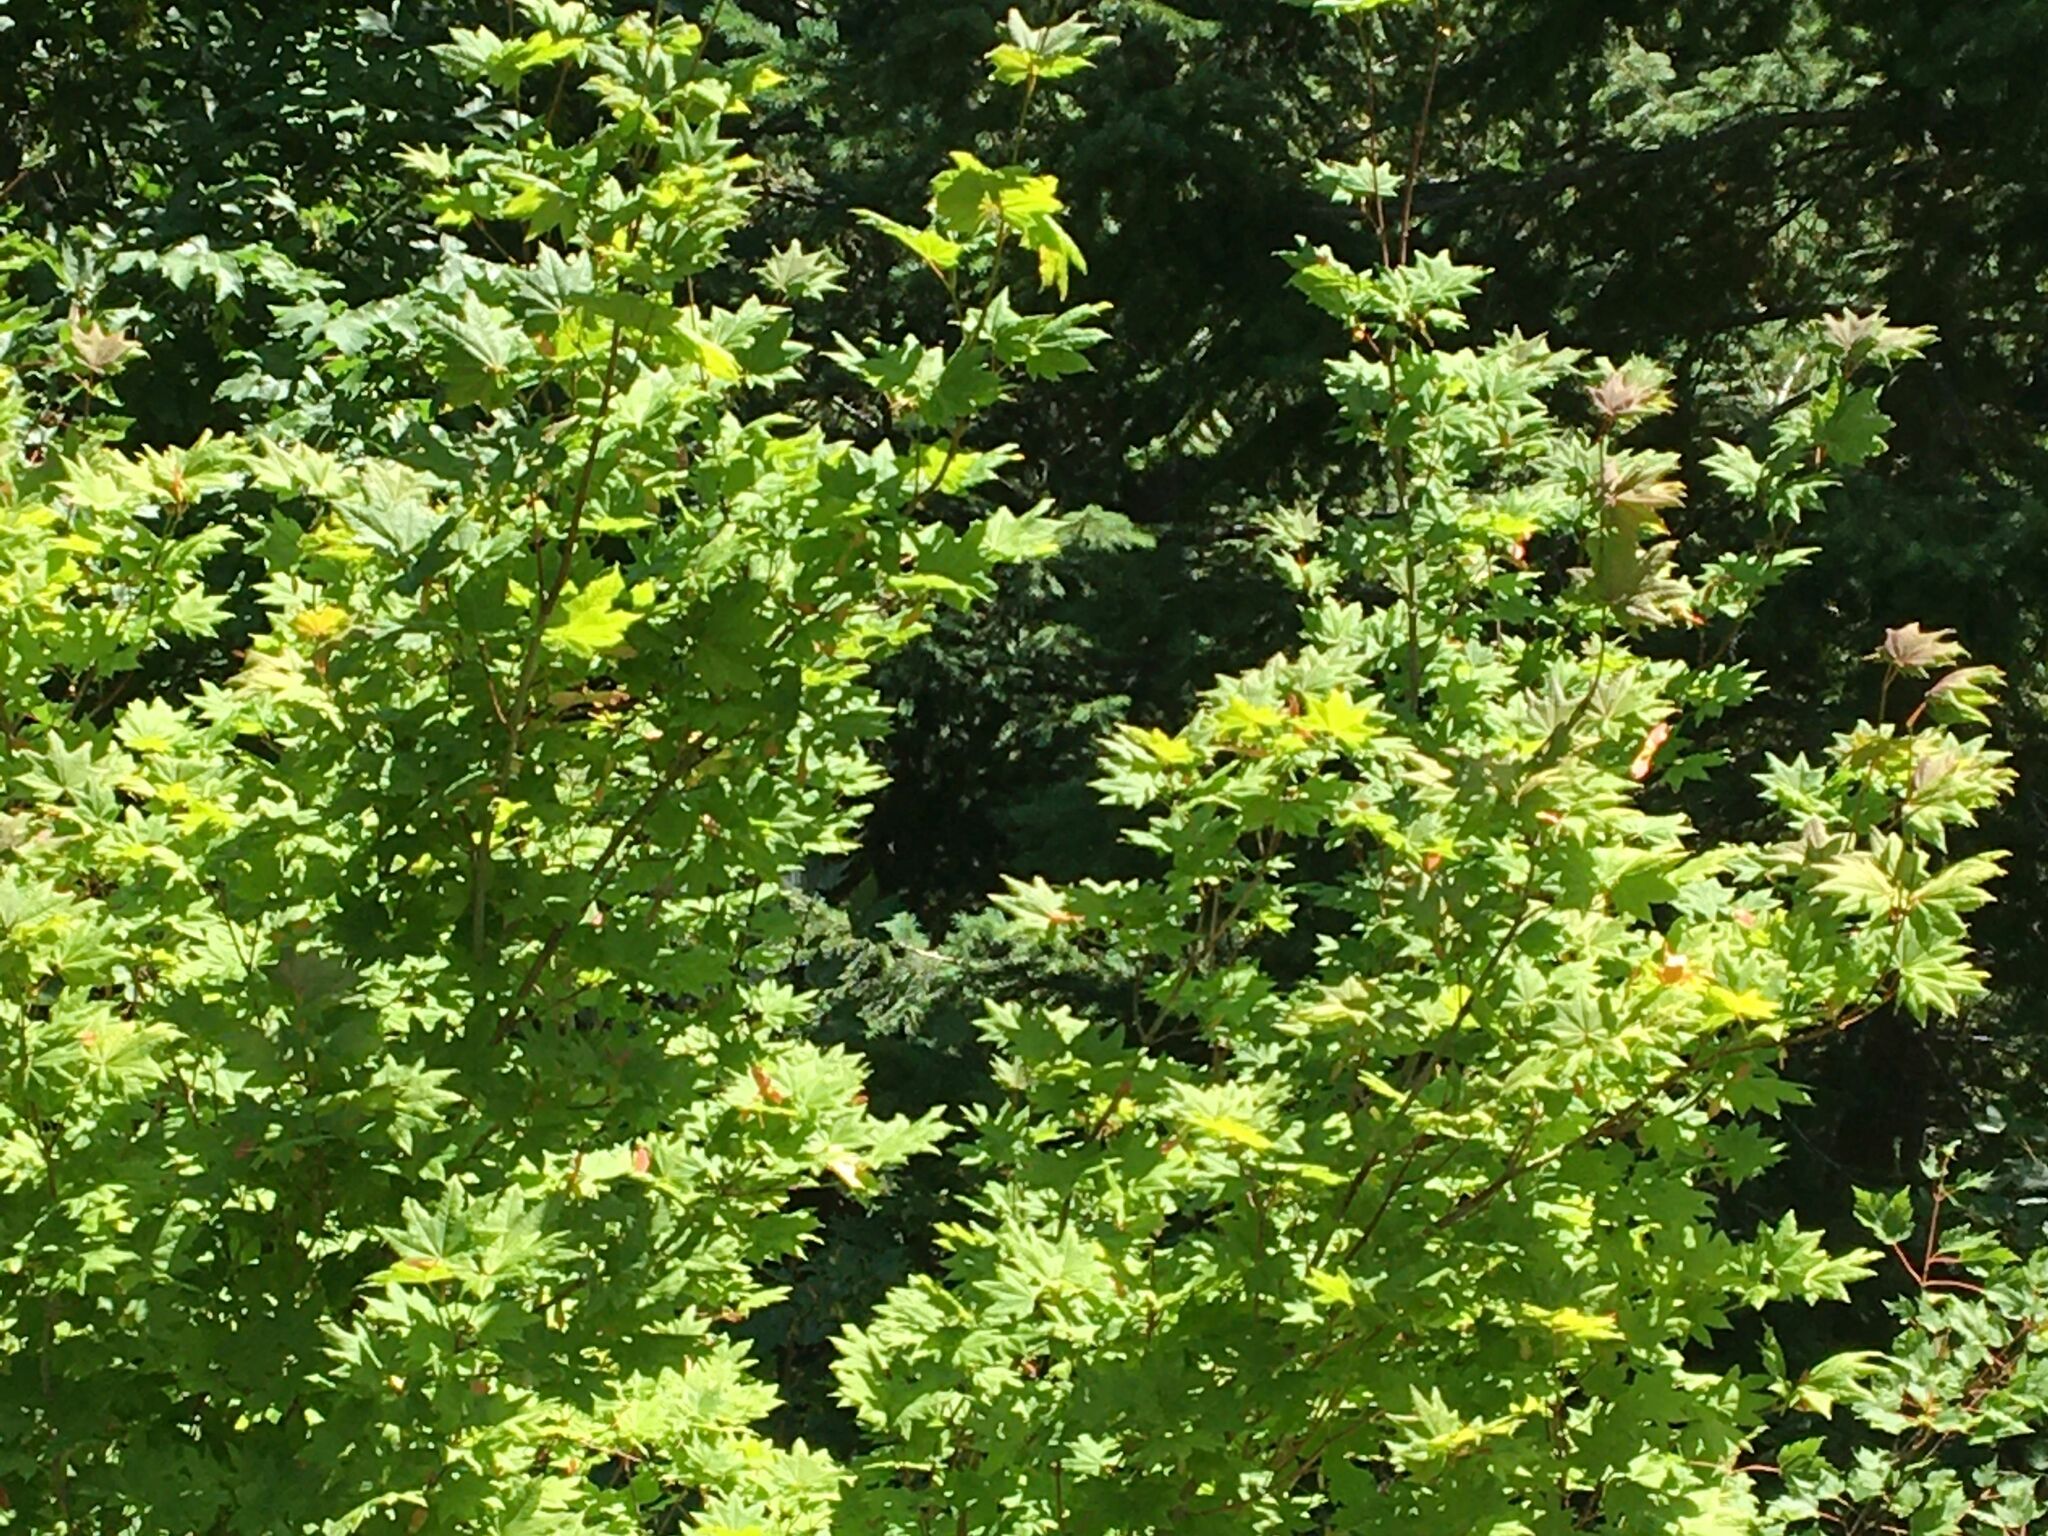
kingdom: Plantae
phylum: Tracheophyta
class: Magnoliopsida
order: Sapindales
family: Sapindaceae
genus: Acer
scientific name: Acer circinatum
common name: Vine maple
